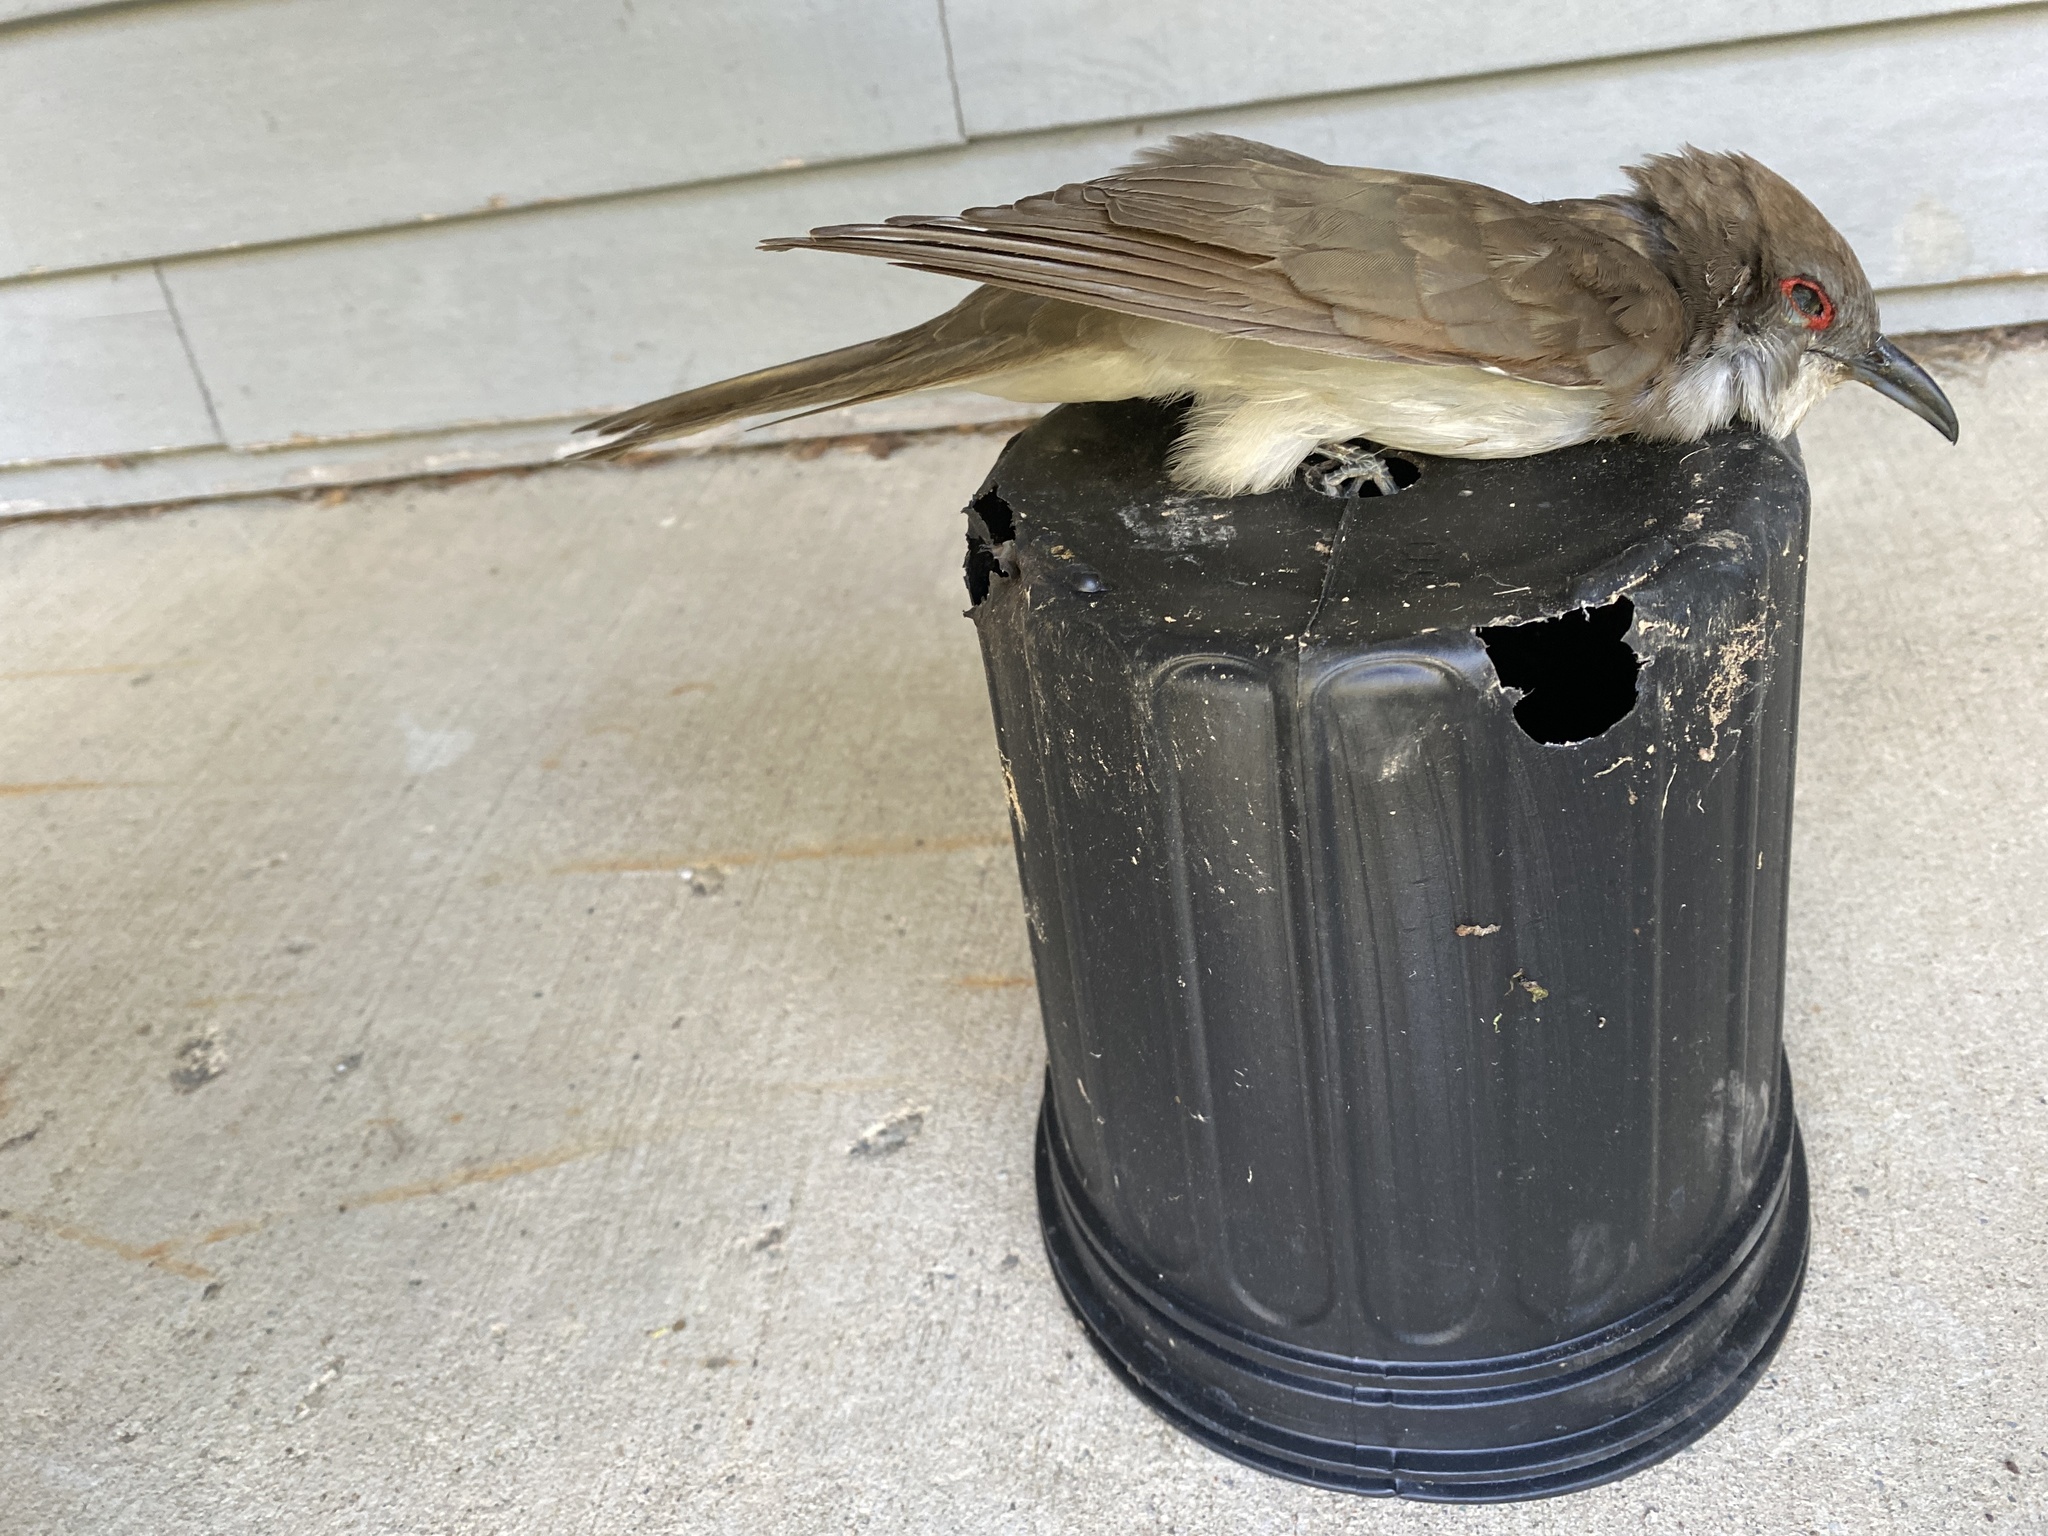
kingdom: Animalia
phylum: Chordata
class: Aves
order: Cuculiformes
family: Cuculidae
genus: Coccyzus
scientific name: Coccyzus erythropthalmus
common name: Black-billed cuckoo
